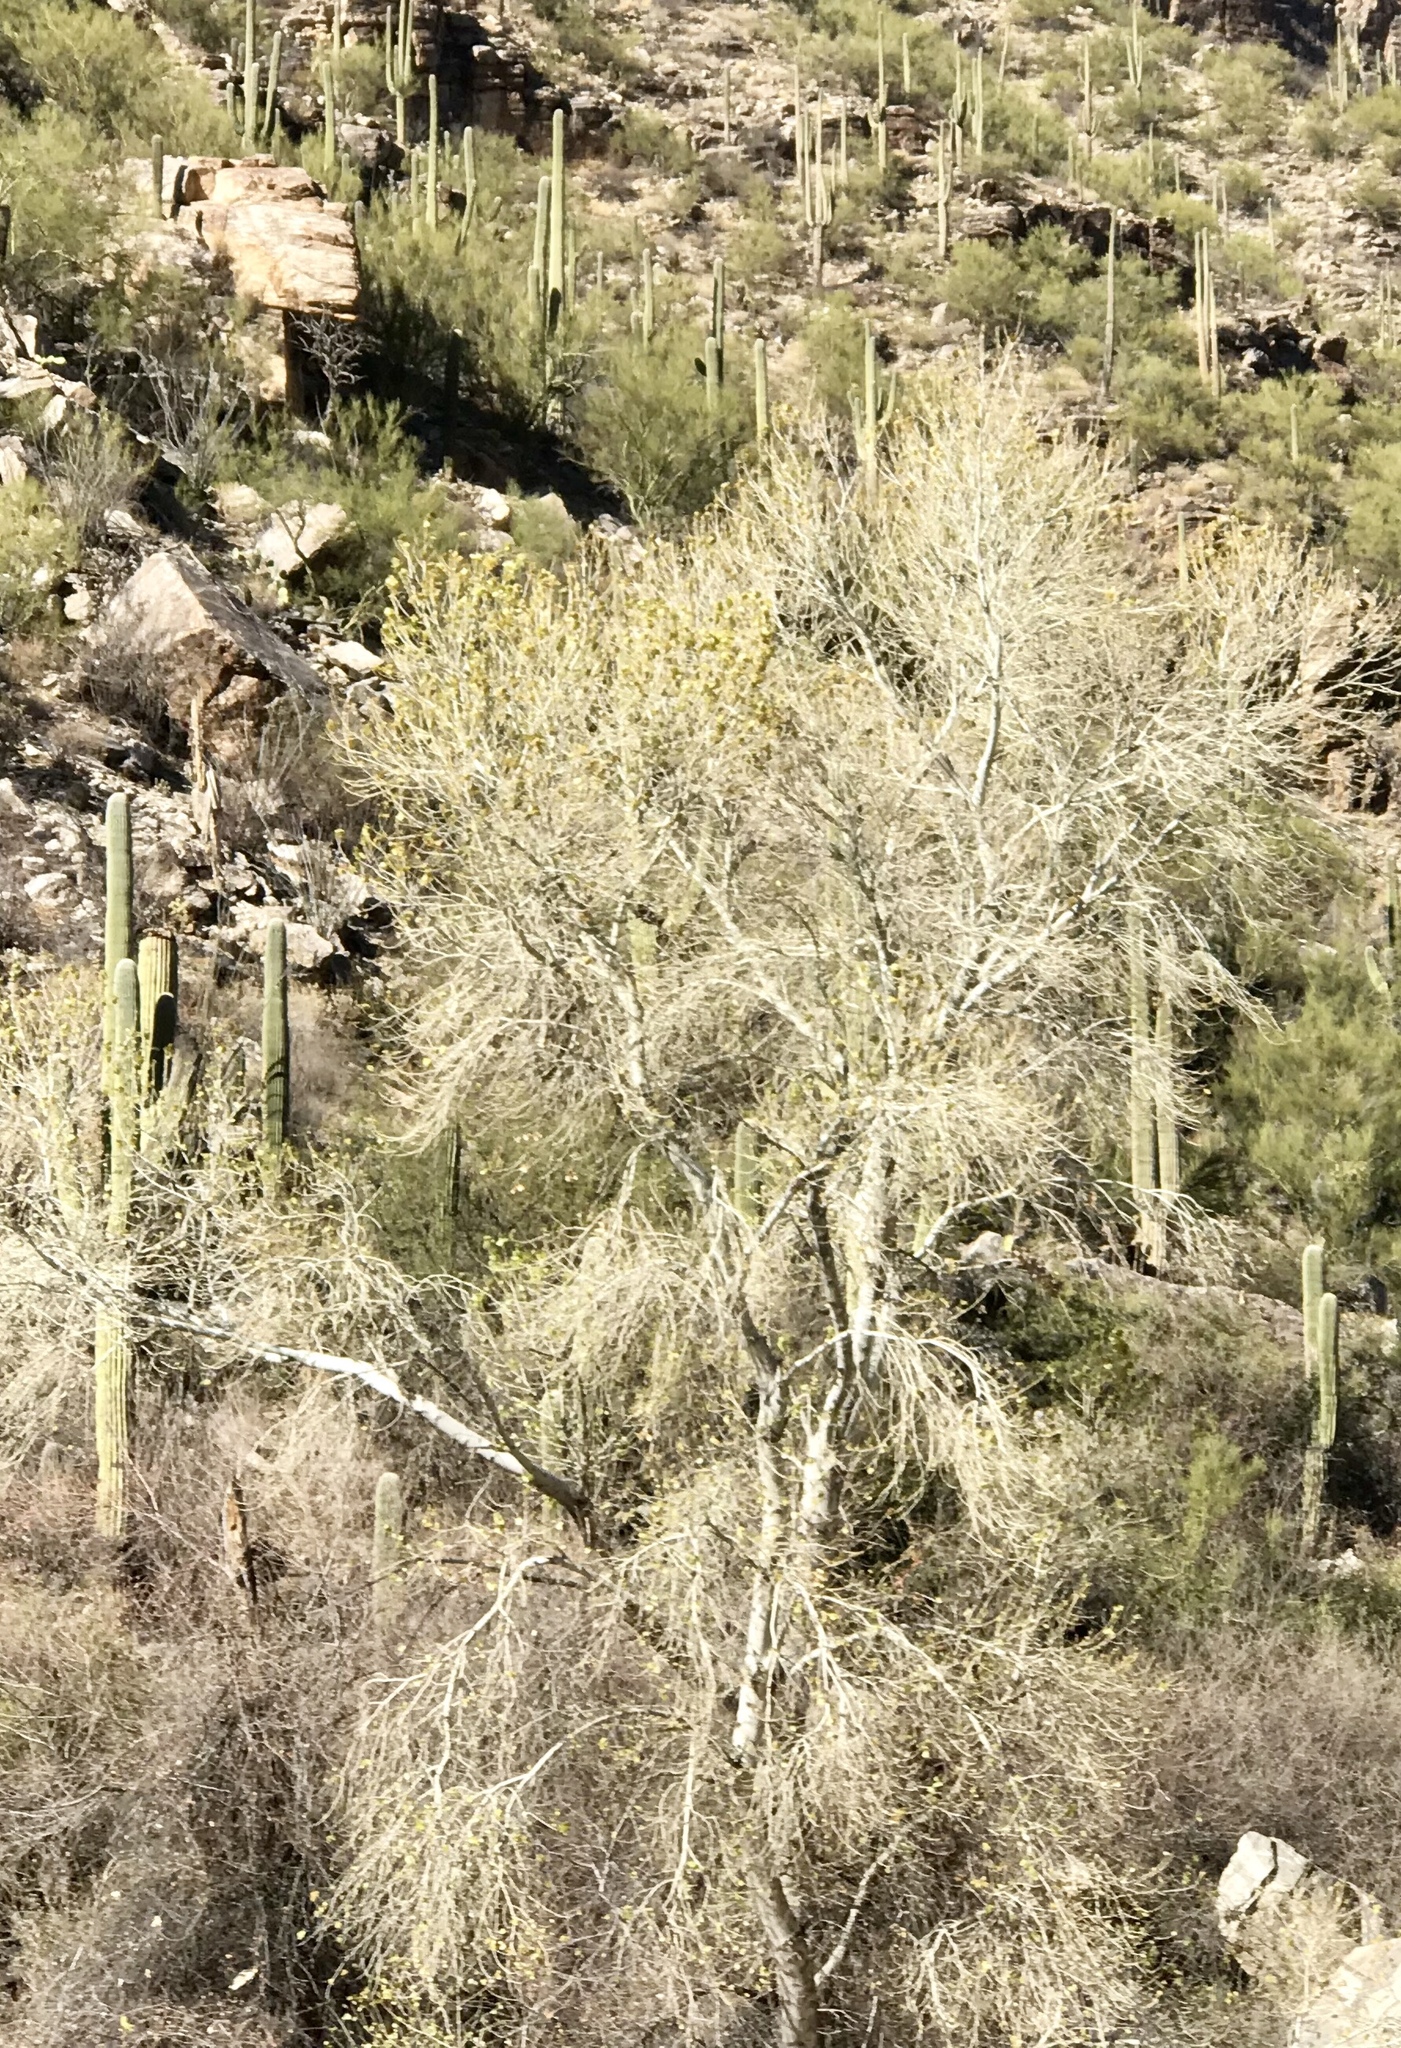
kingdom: Plantae
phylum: Tracheophyta
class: Magnoliopsida
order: Malpighiales
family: Salicaceae
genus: Populus
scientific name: Populus fremontii
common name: Fremont's cottonwood
